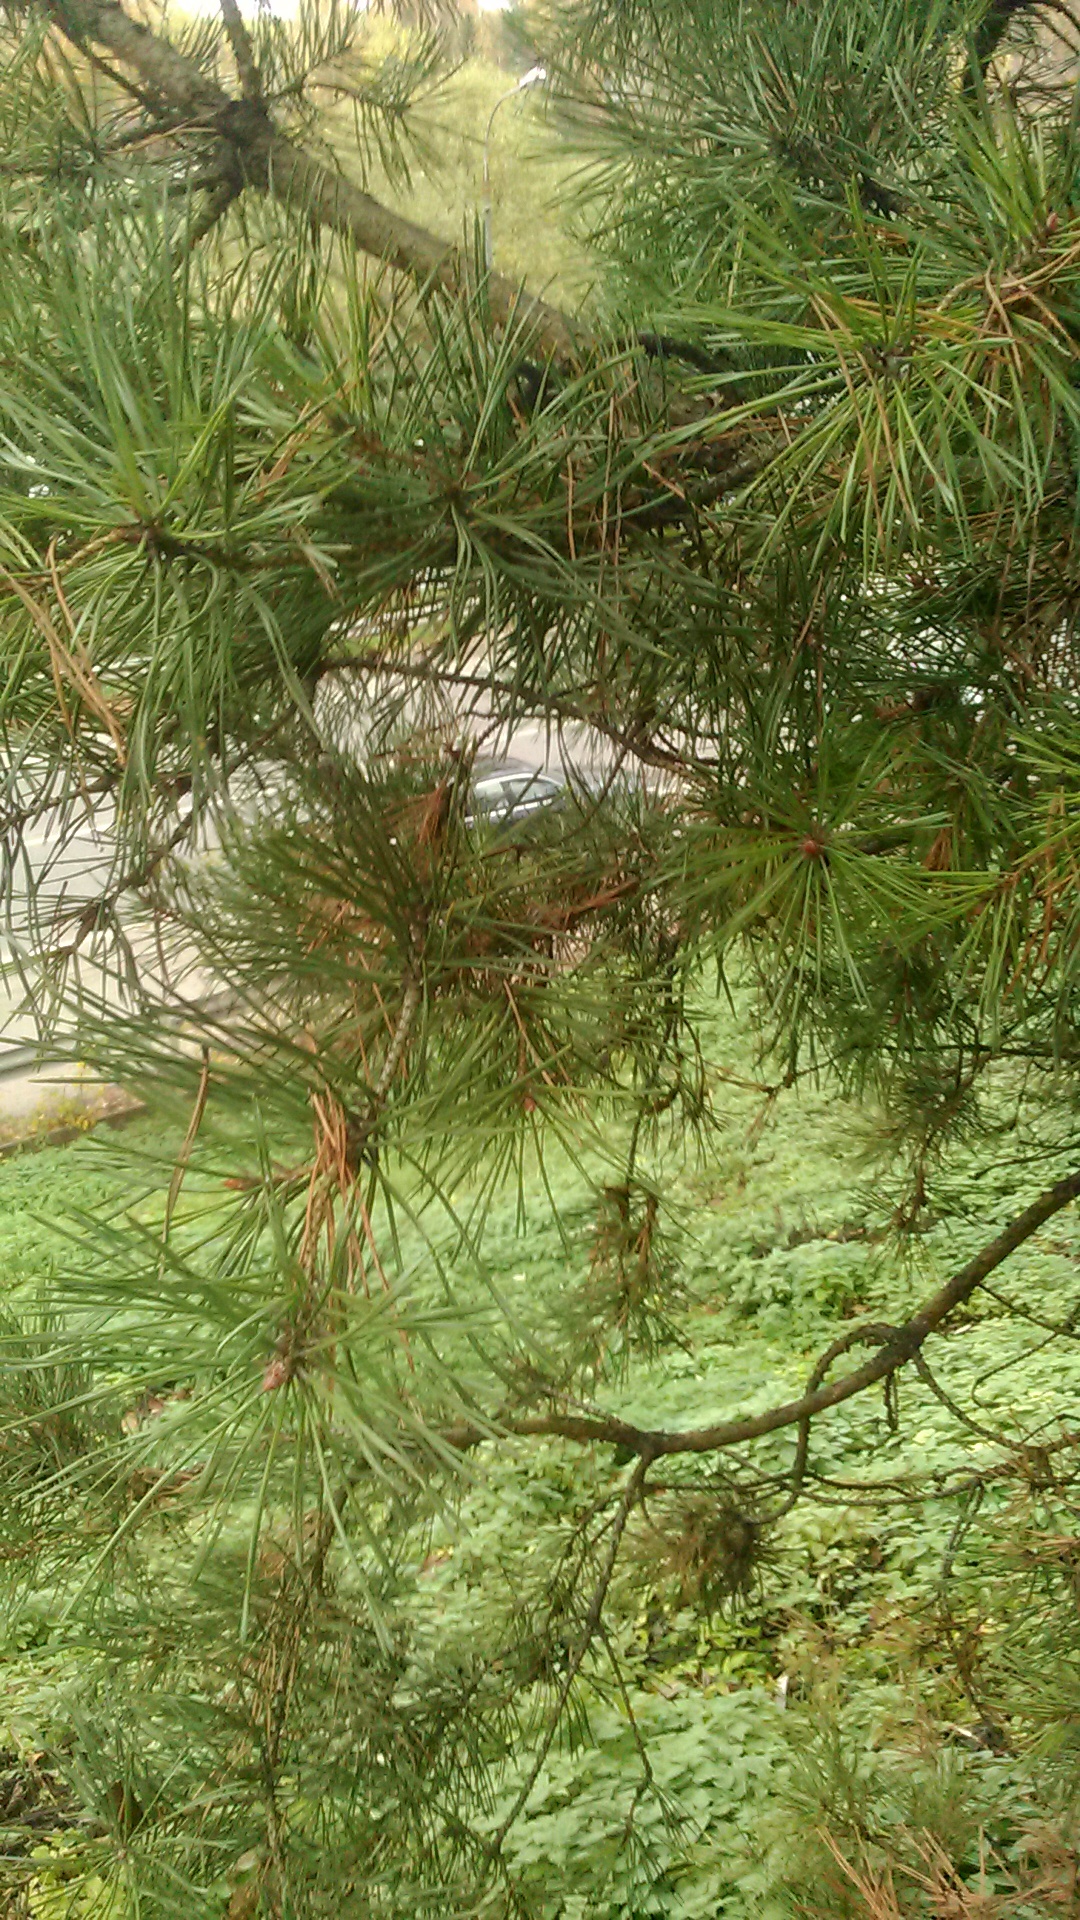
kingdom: Plantae
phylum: Tracheophyta
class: Pinopsida
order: Pinales
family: Pinaceae
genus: Pinus
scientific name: Pinus sylvestris
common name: Scots pine
